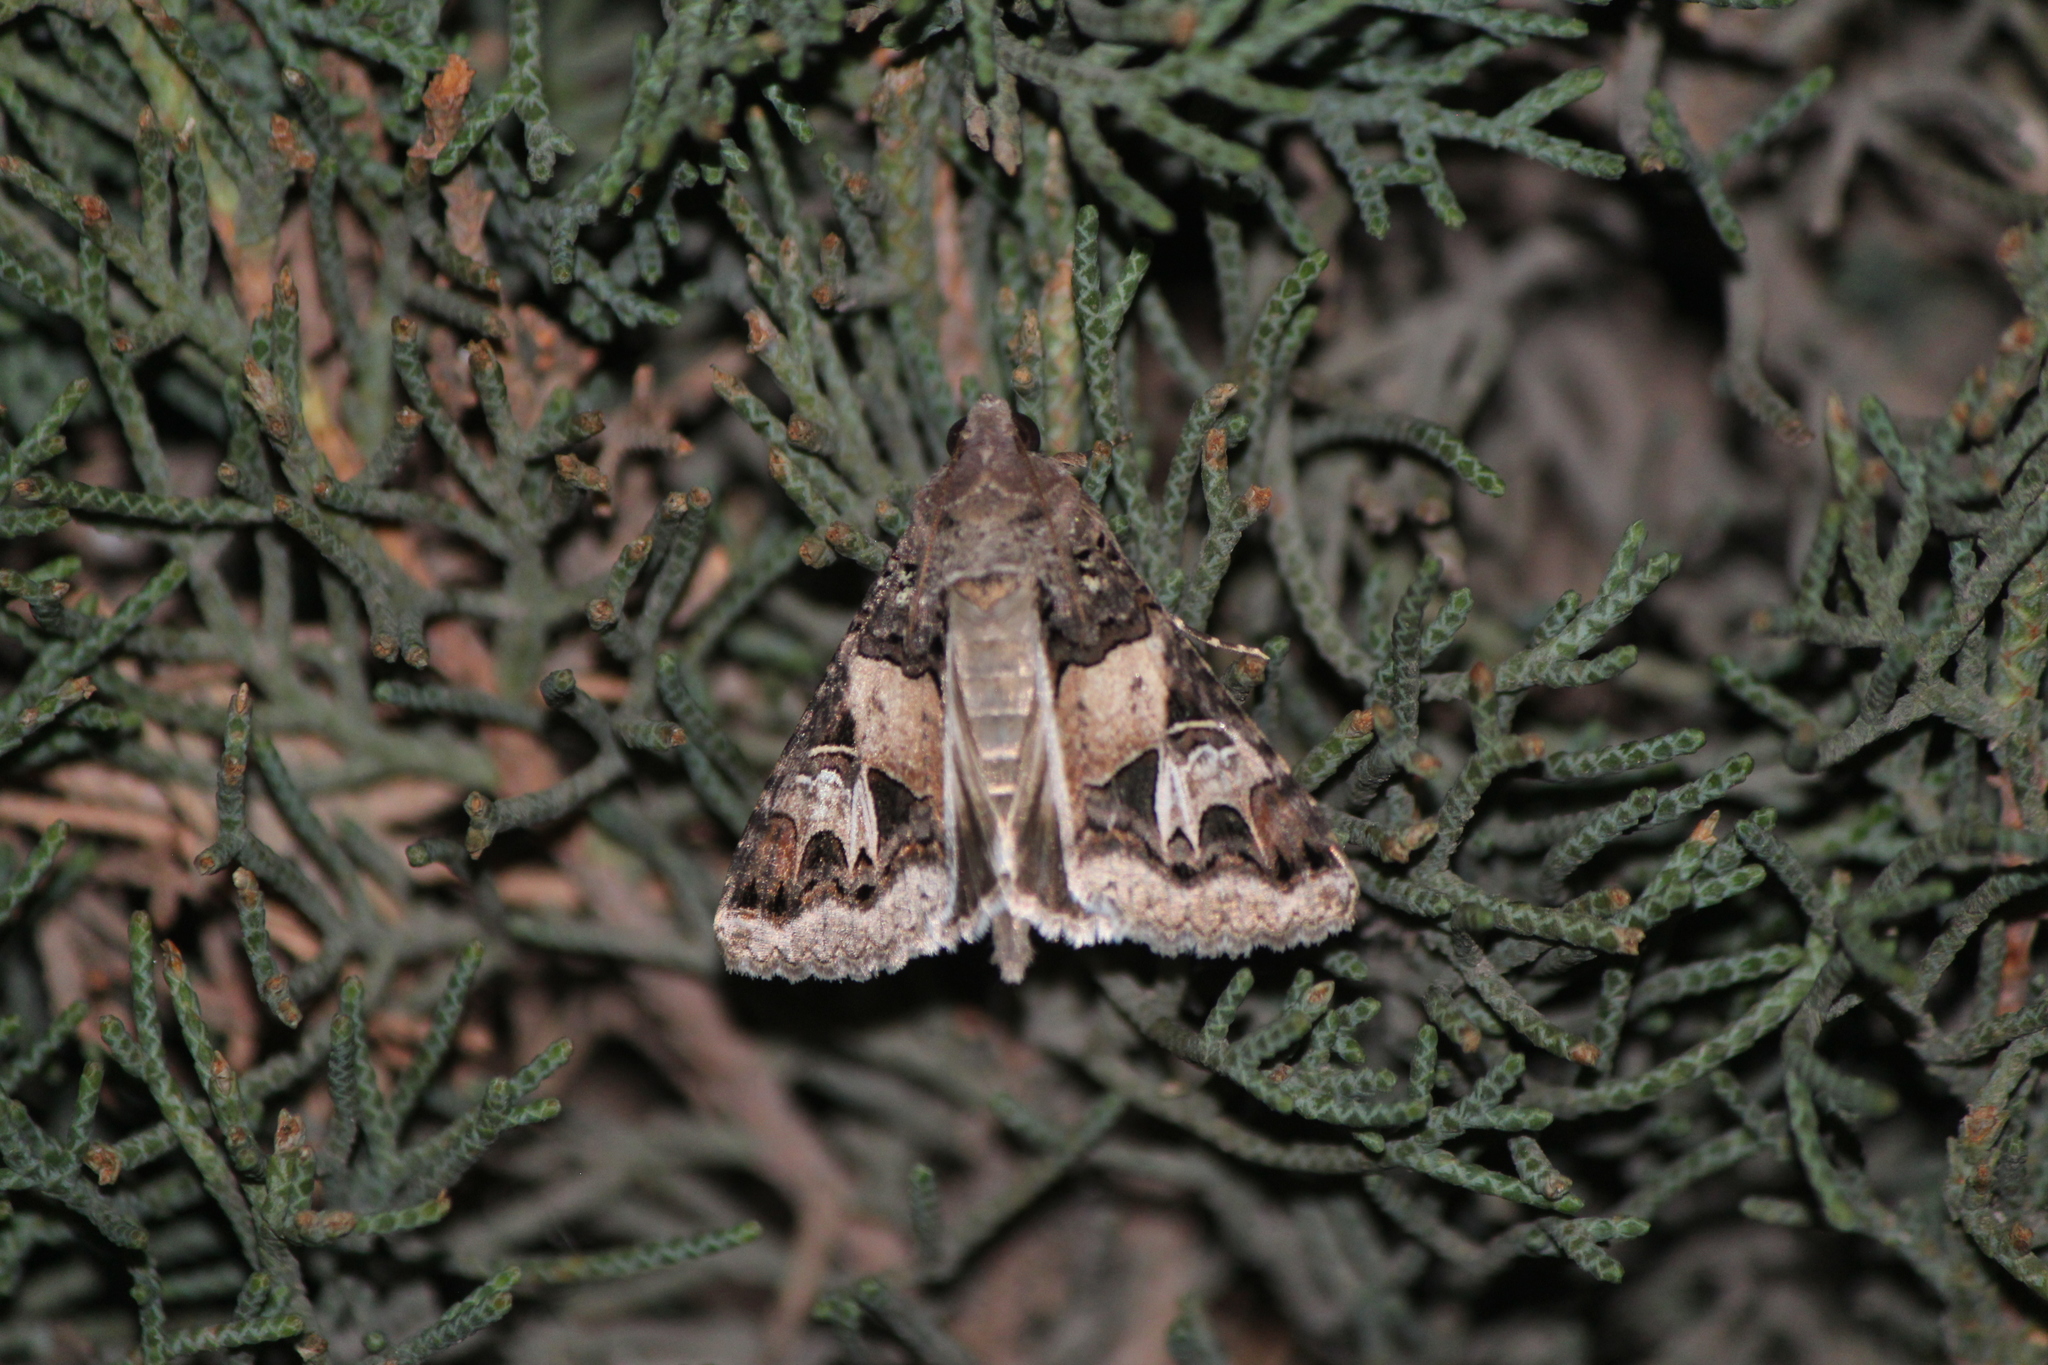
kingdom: Animalia
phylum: Arthropoda
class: Insecta
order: Lepidoptera
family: Erebidae
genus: Melipotis
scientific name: Melipotis novanda
